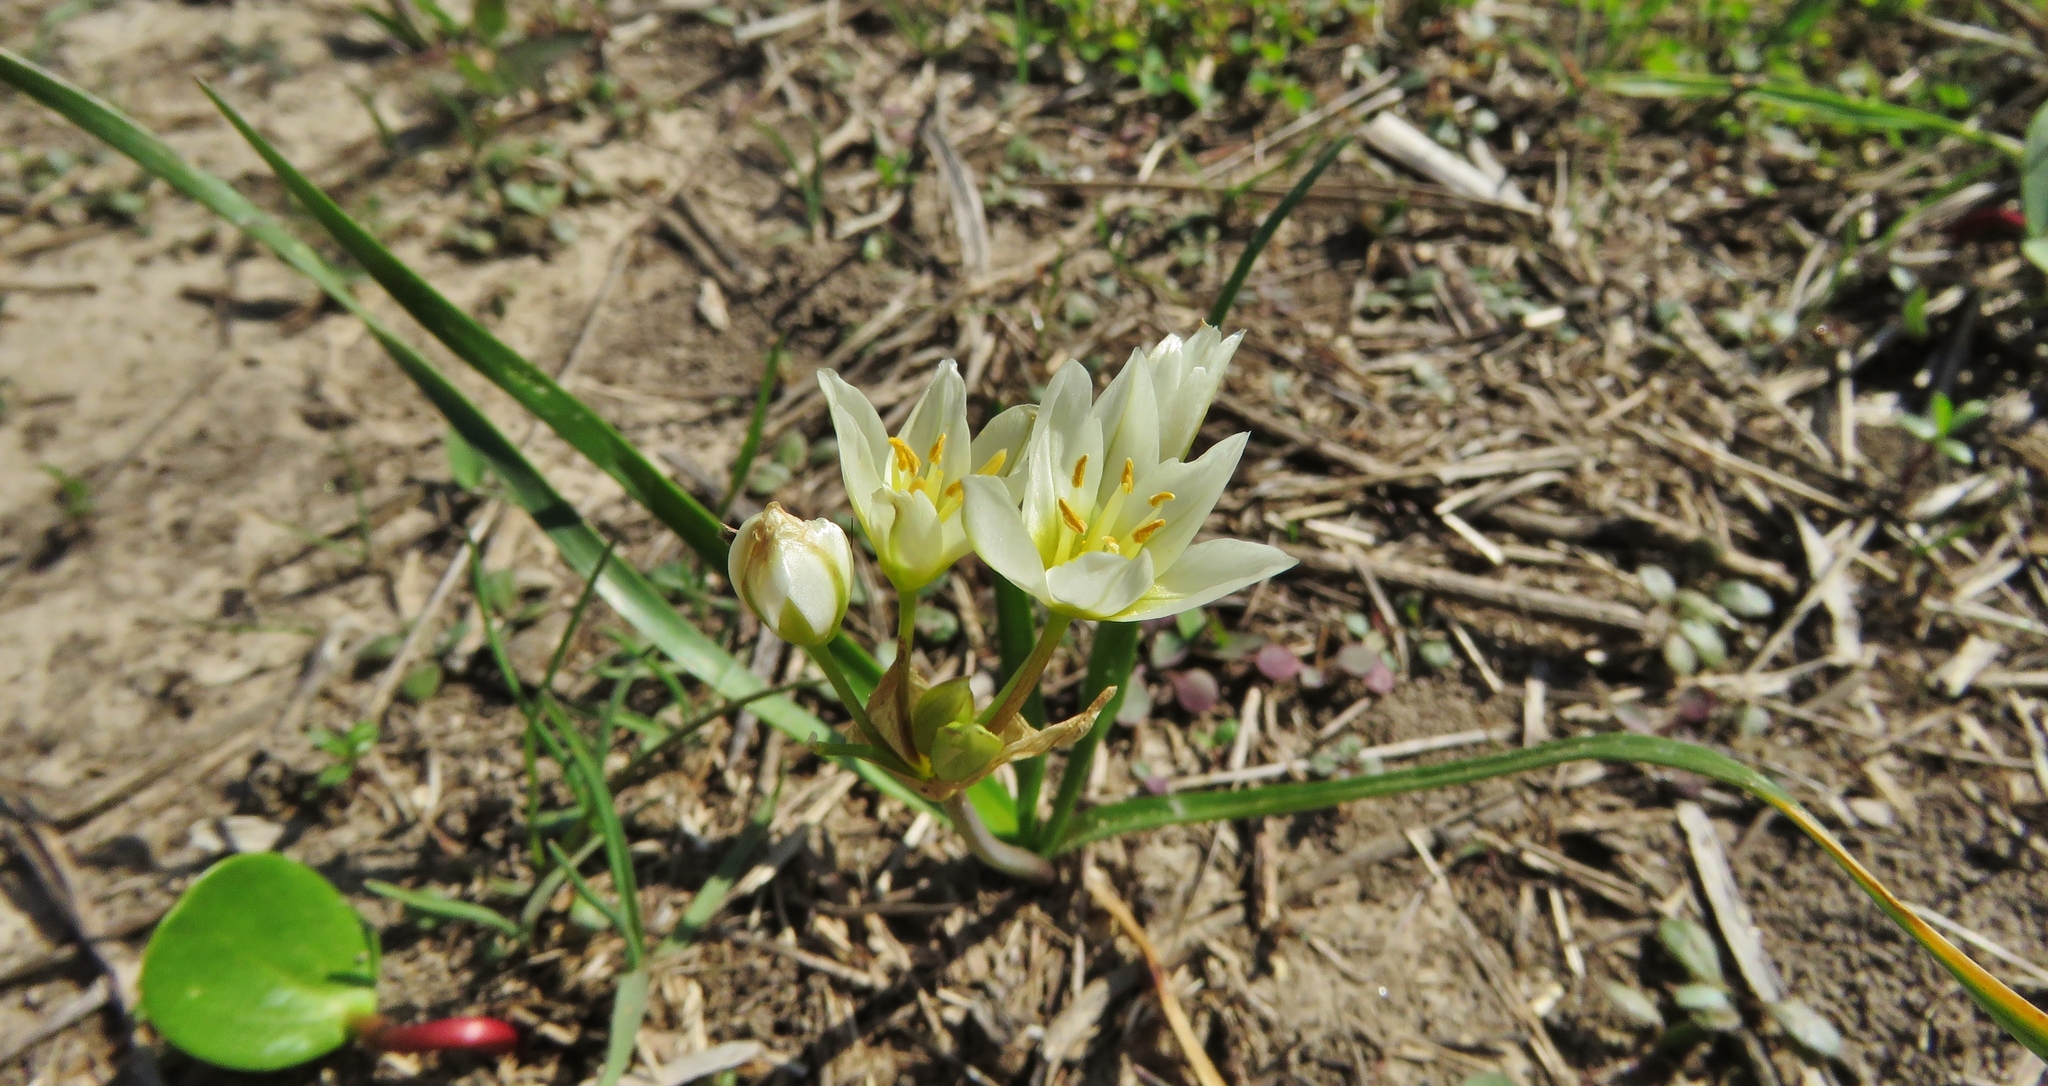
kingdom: Plantae
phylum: Tracheophyta
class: Liliopsida
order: Asparagales
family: Amaryllidaceae
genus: Nothoscordum
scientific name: Nothoscordum bivalve
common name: Crow-poison
